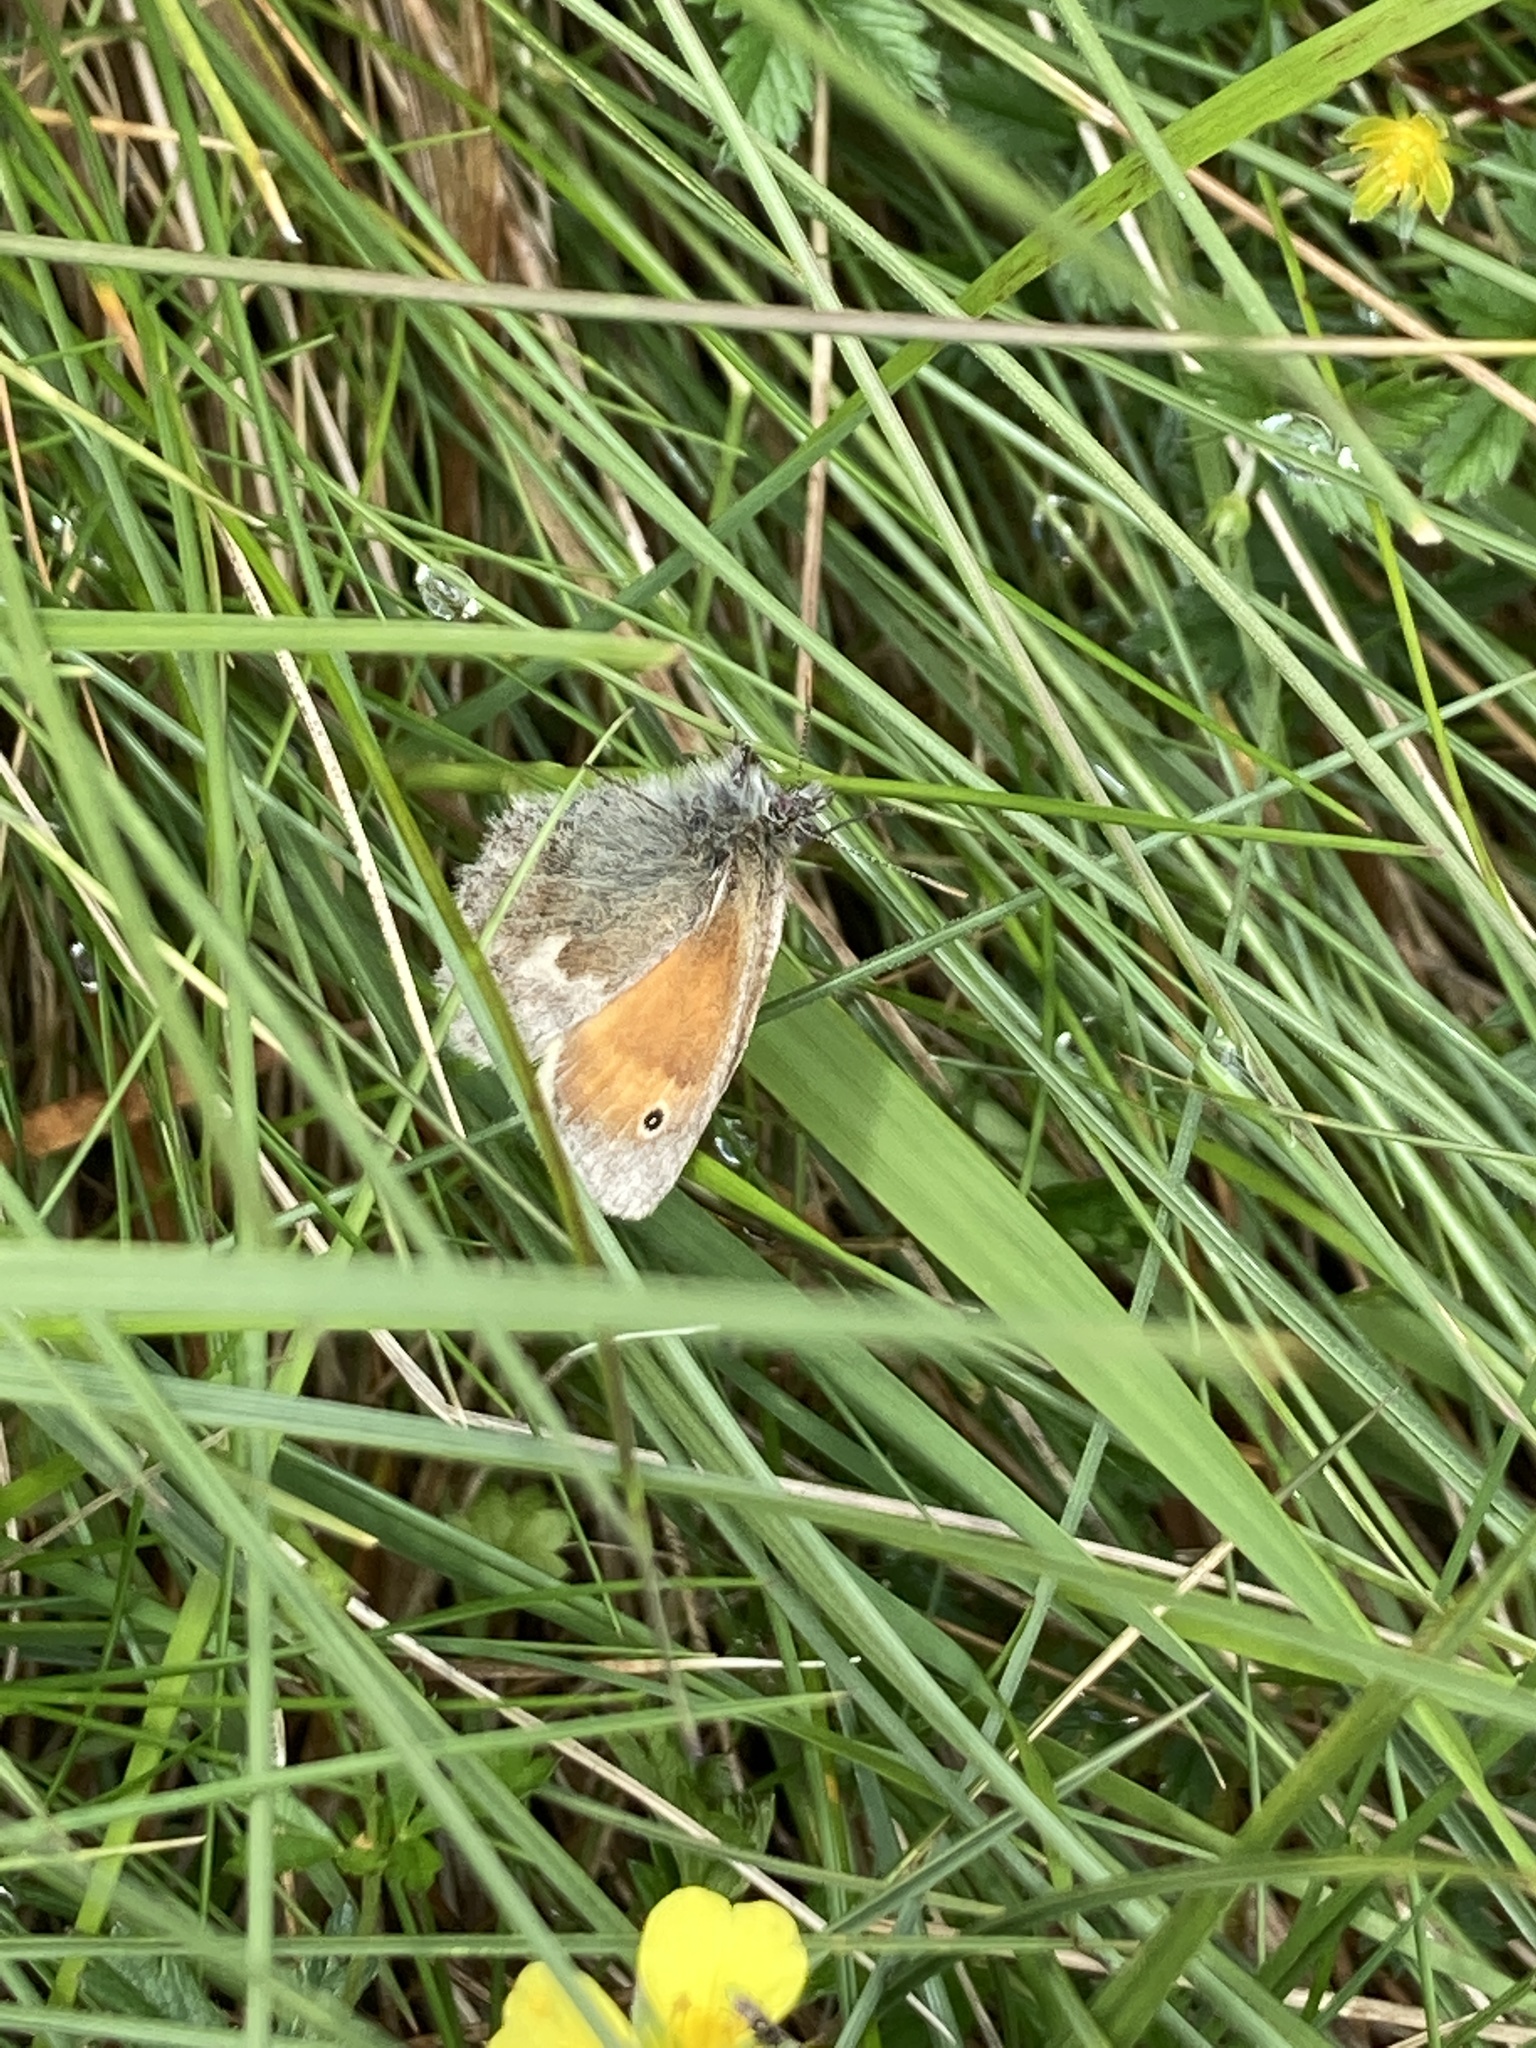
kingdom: Animalia
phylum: Arthropoda
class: Insecta
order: Lepidoptera
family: Nymphalidae
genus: Coenonympha
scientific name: Coenonympha pamphilus
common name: Small heath
